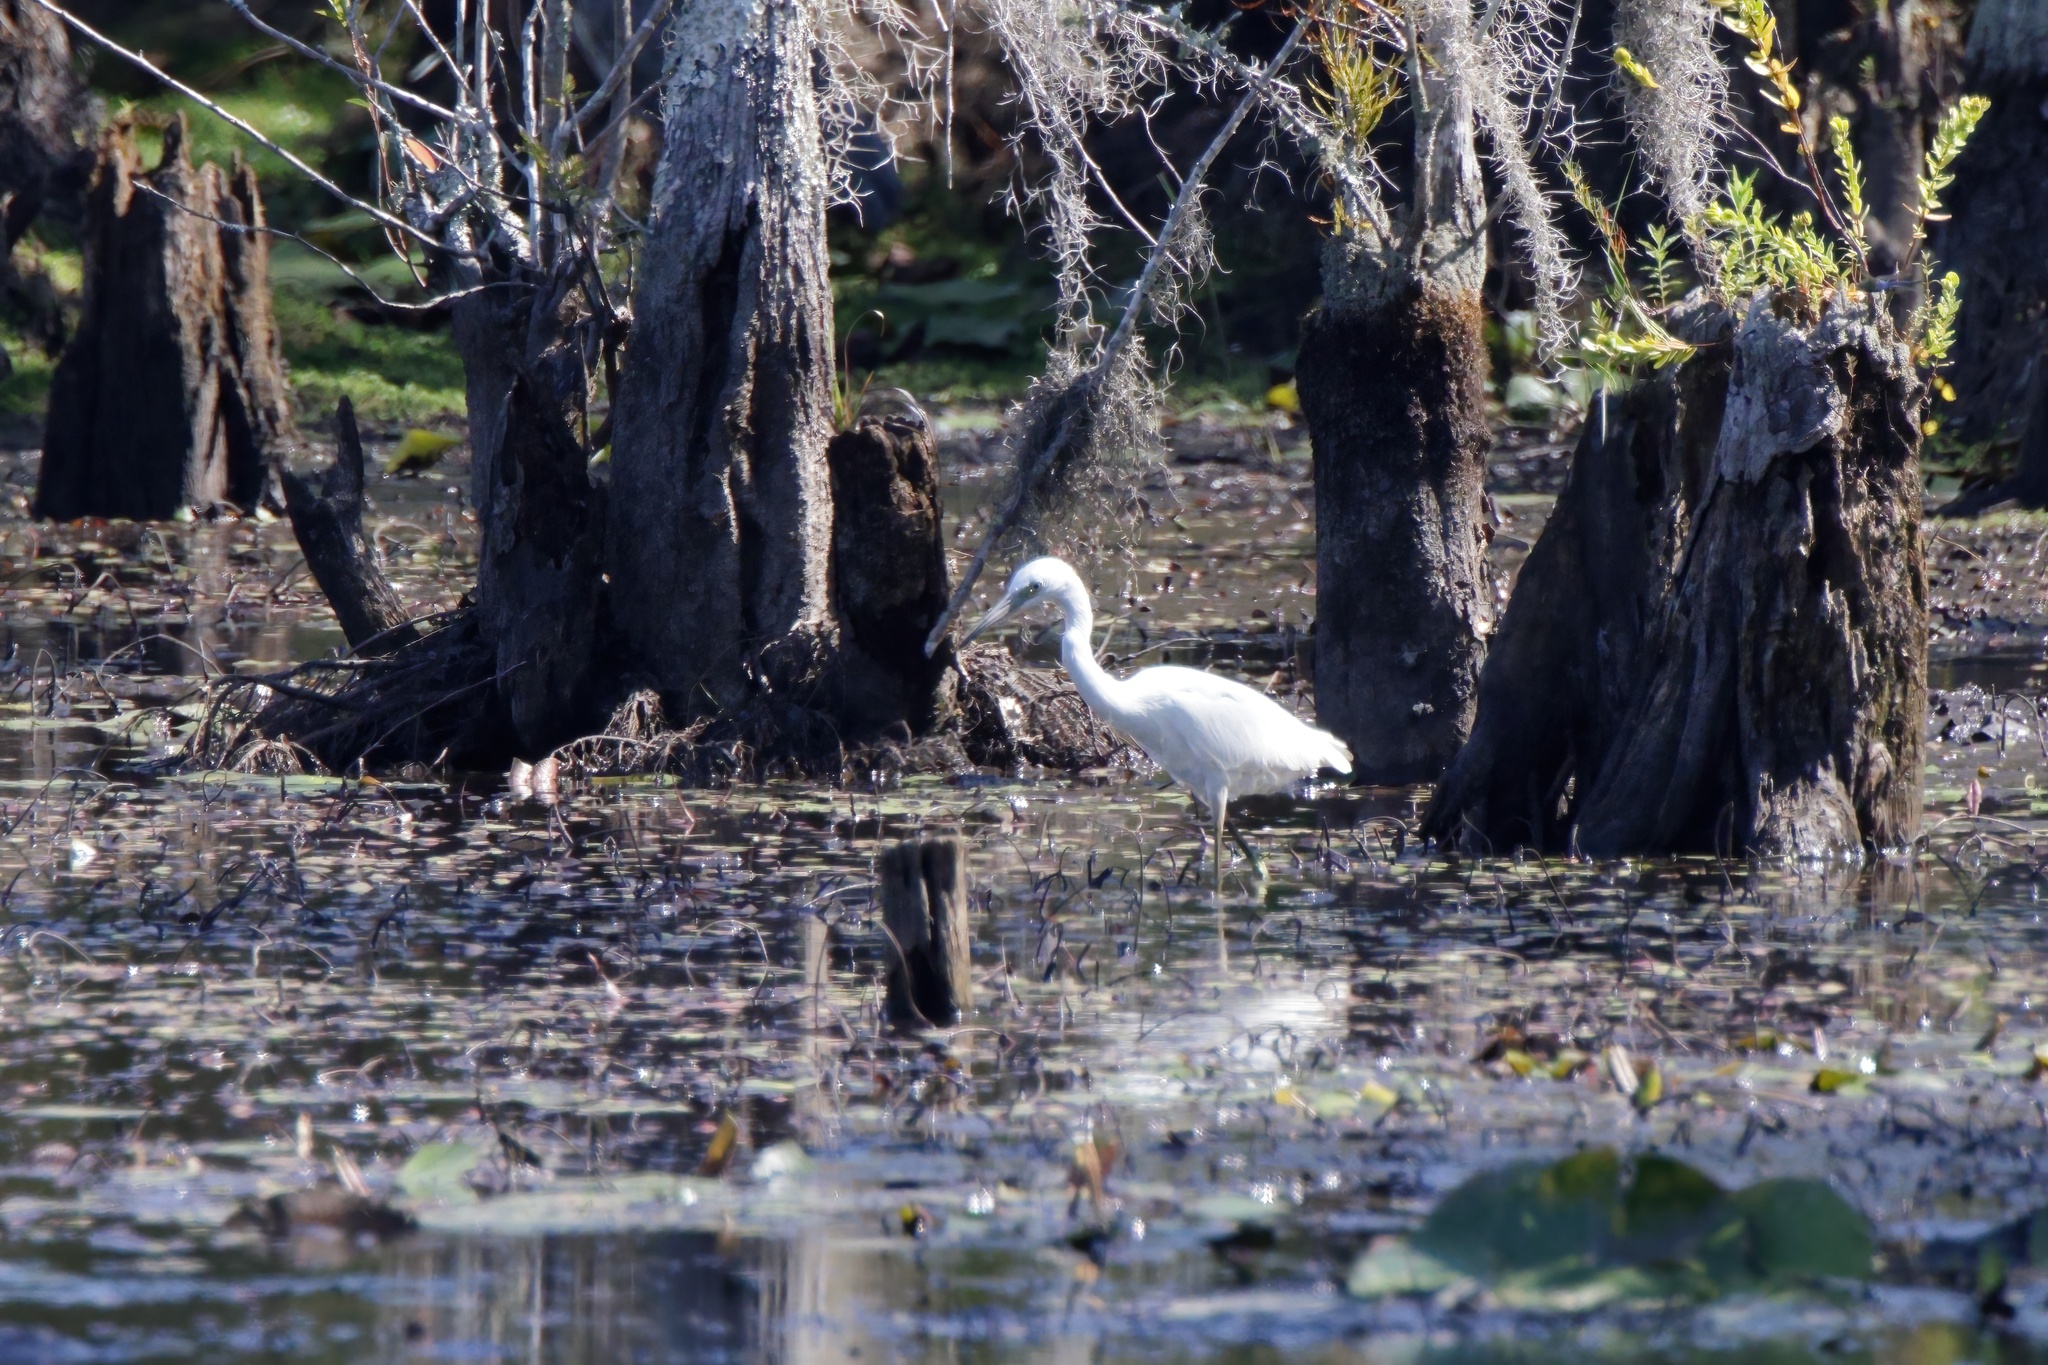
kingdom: Animalia
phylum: Chordata
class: Aves
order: Pelecaniformes
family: Ardeidae
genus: Egretta
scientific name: Egretta caerulea
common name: Little blue heron
